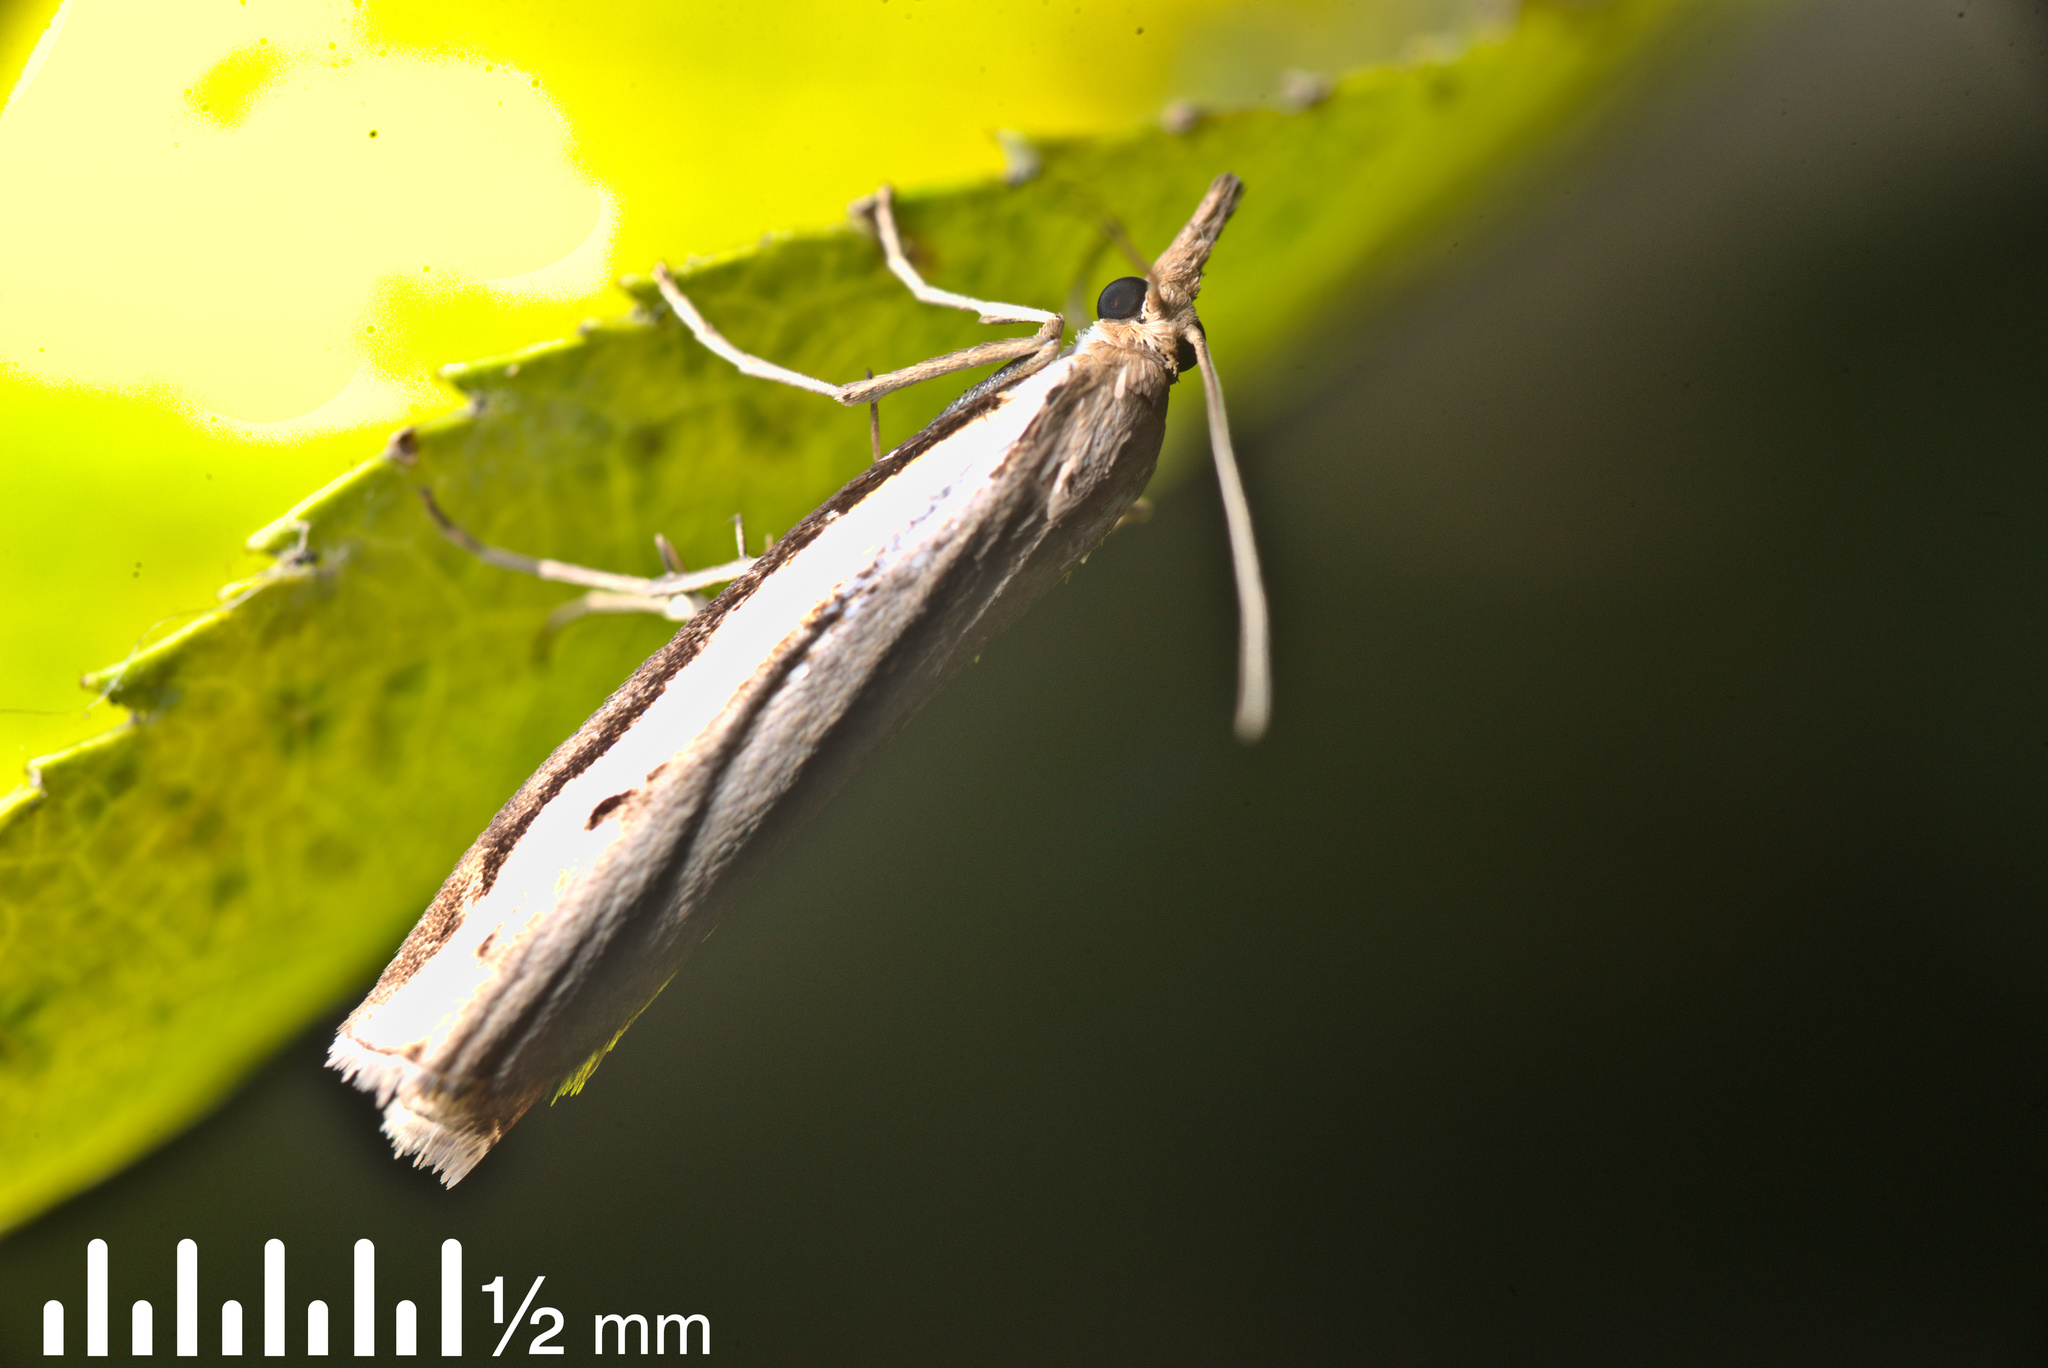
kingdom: Animalia
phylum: Arthropoda
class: Insecta
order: Lepidoptera
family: Crambidae
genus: Orocrambus
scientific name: Orocrambus flexuosellus
